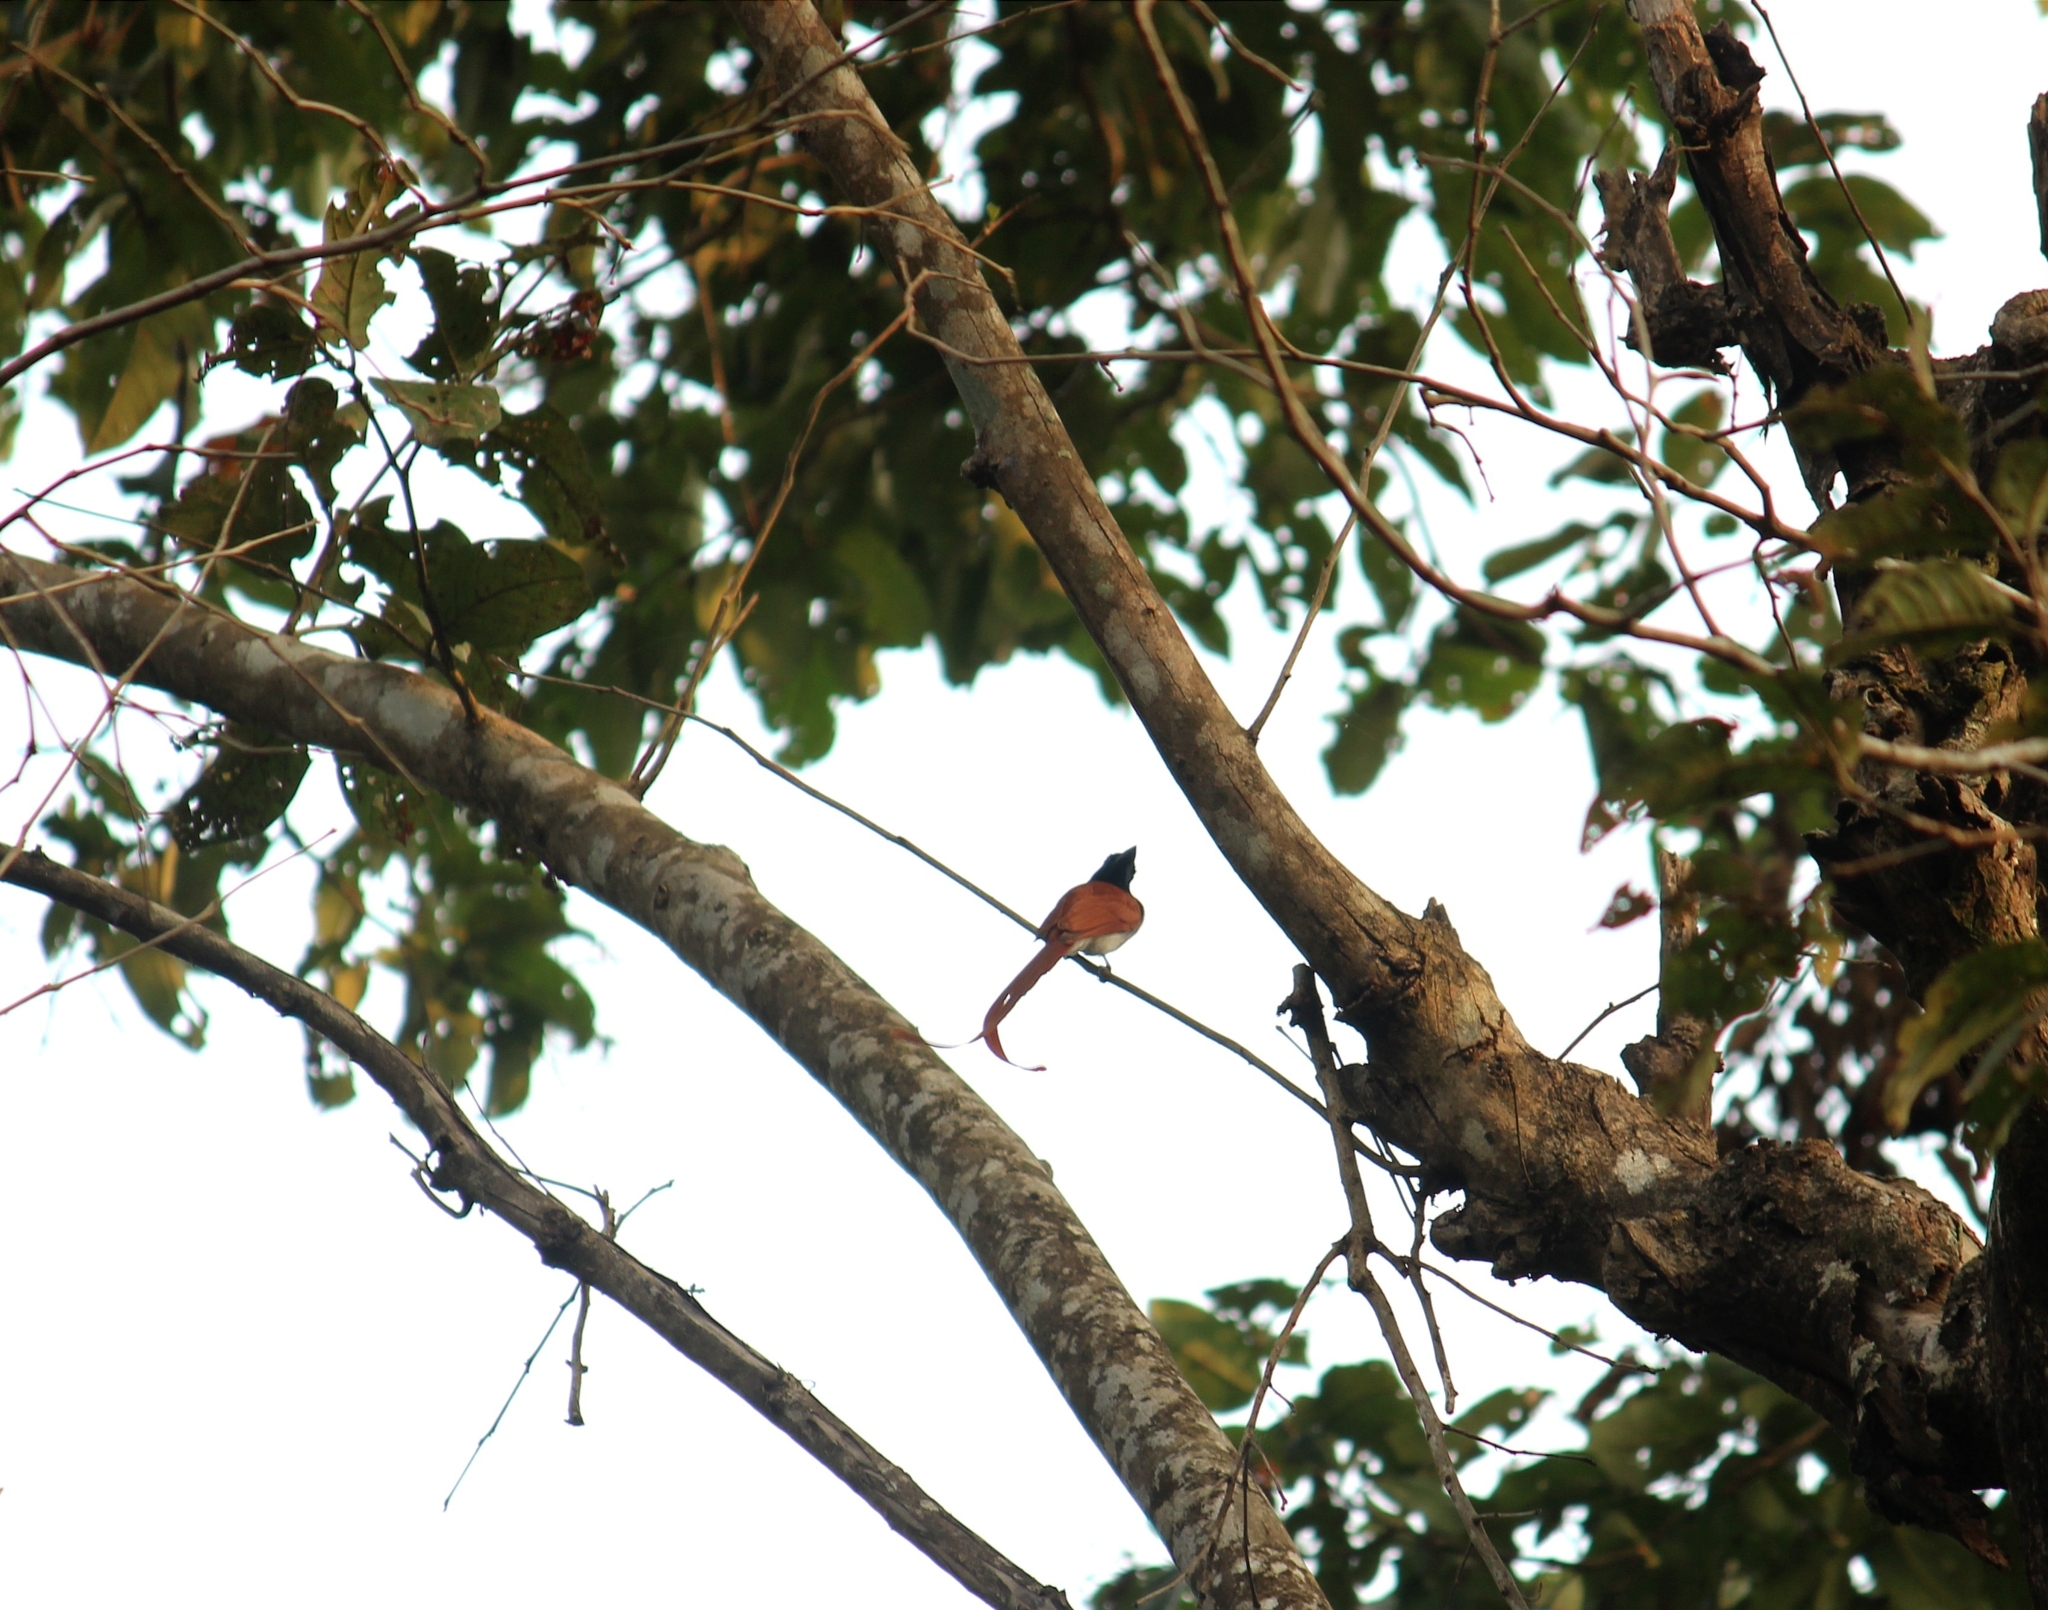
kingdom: Animalia
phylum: Chordata
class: Aves
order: Passeriformes
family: Monarchidae
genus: Terpsiphone
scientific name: Terpsiphone paradisi
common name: Indian paradise flycatcher
